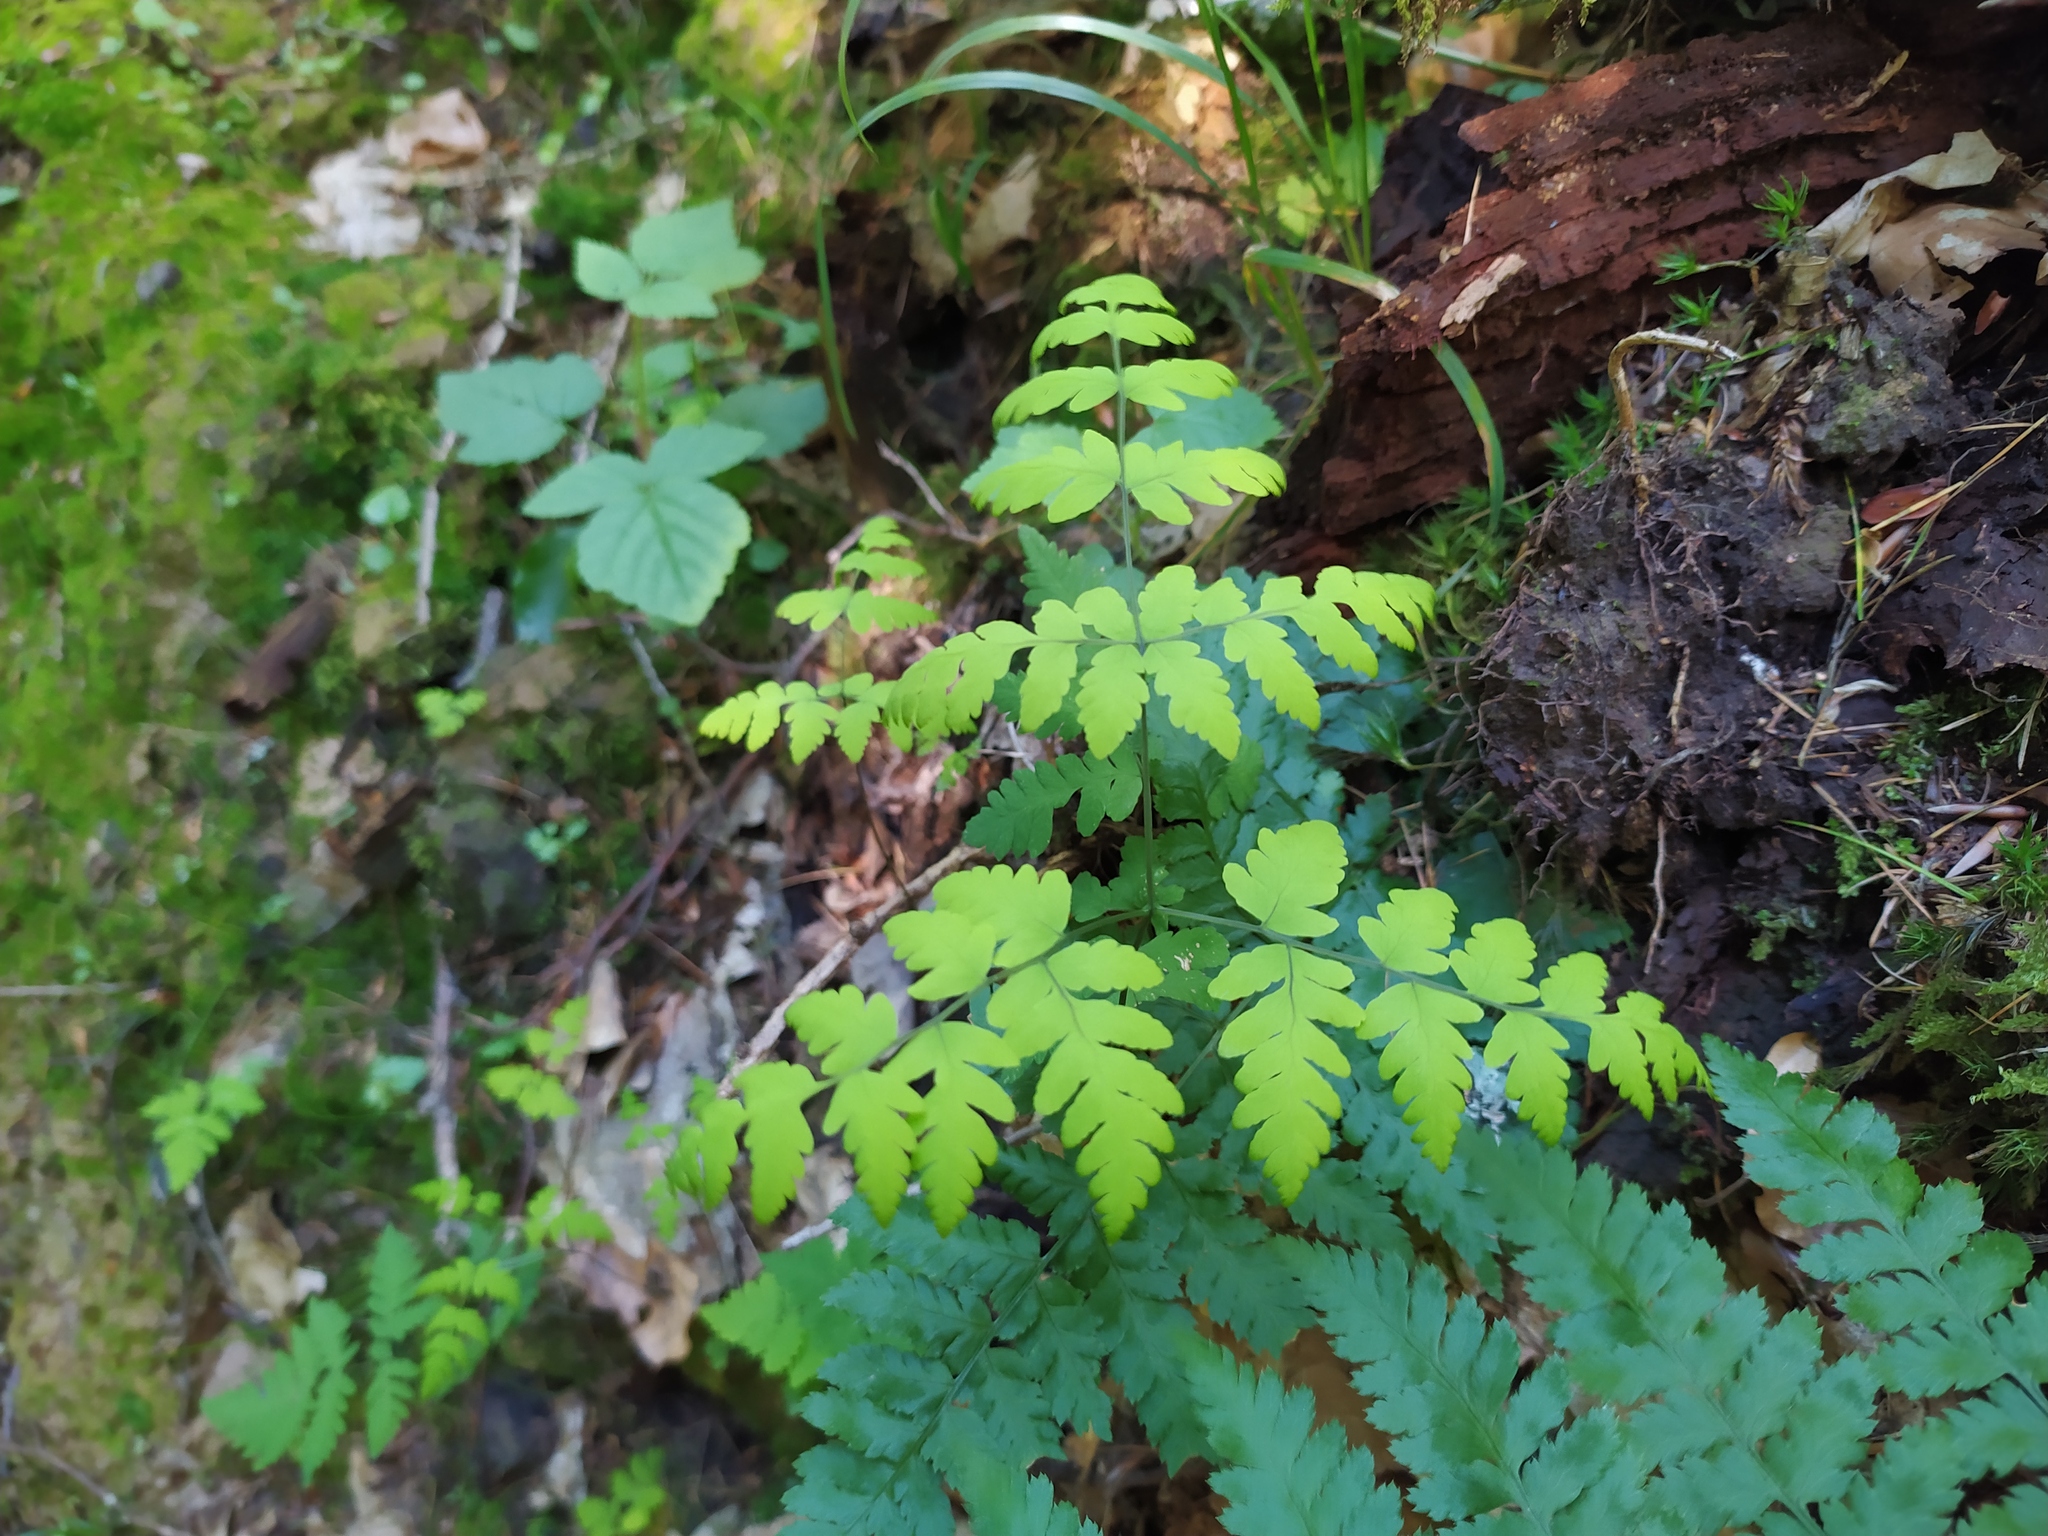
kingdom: Plantae
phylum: Tracheophyta
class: Polypodiopsida
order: Polypodiales
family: Cystopteridaceae
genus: Gymnocarpium
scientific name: Gymnocarpium dryopteris
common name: Oak fern
